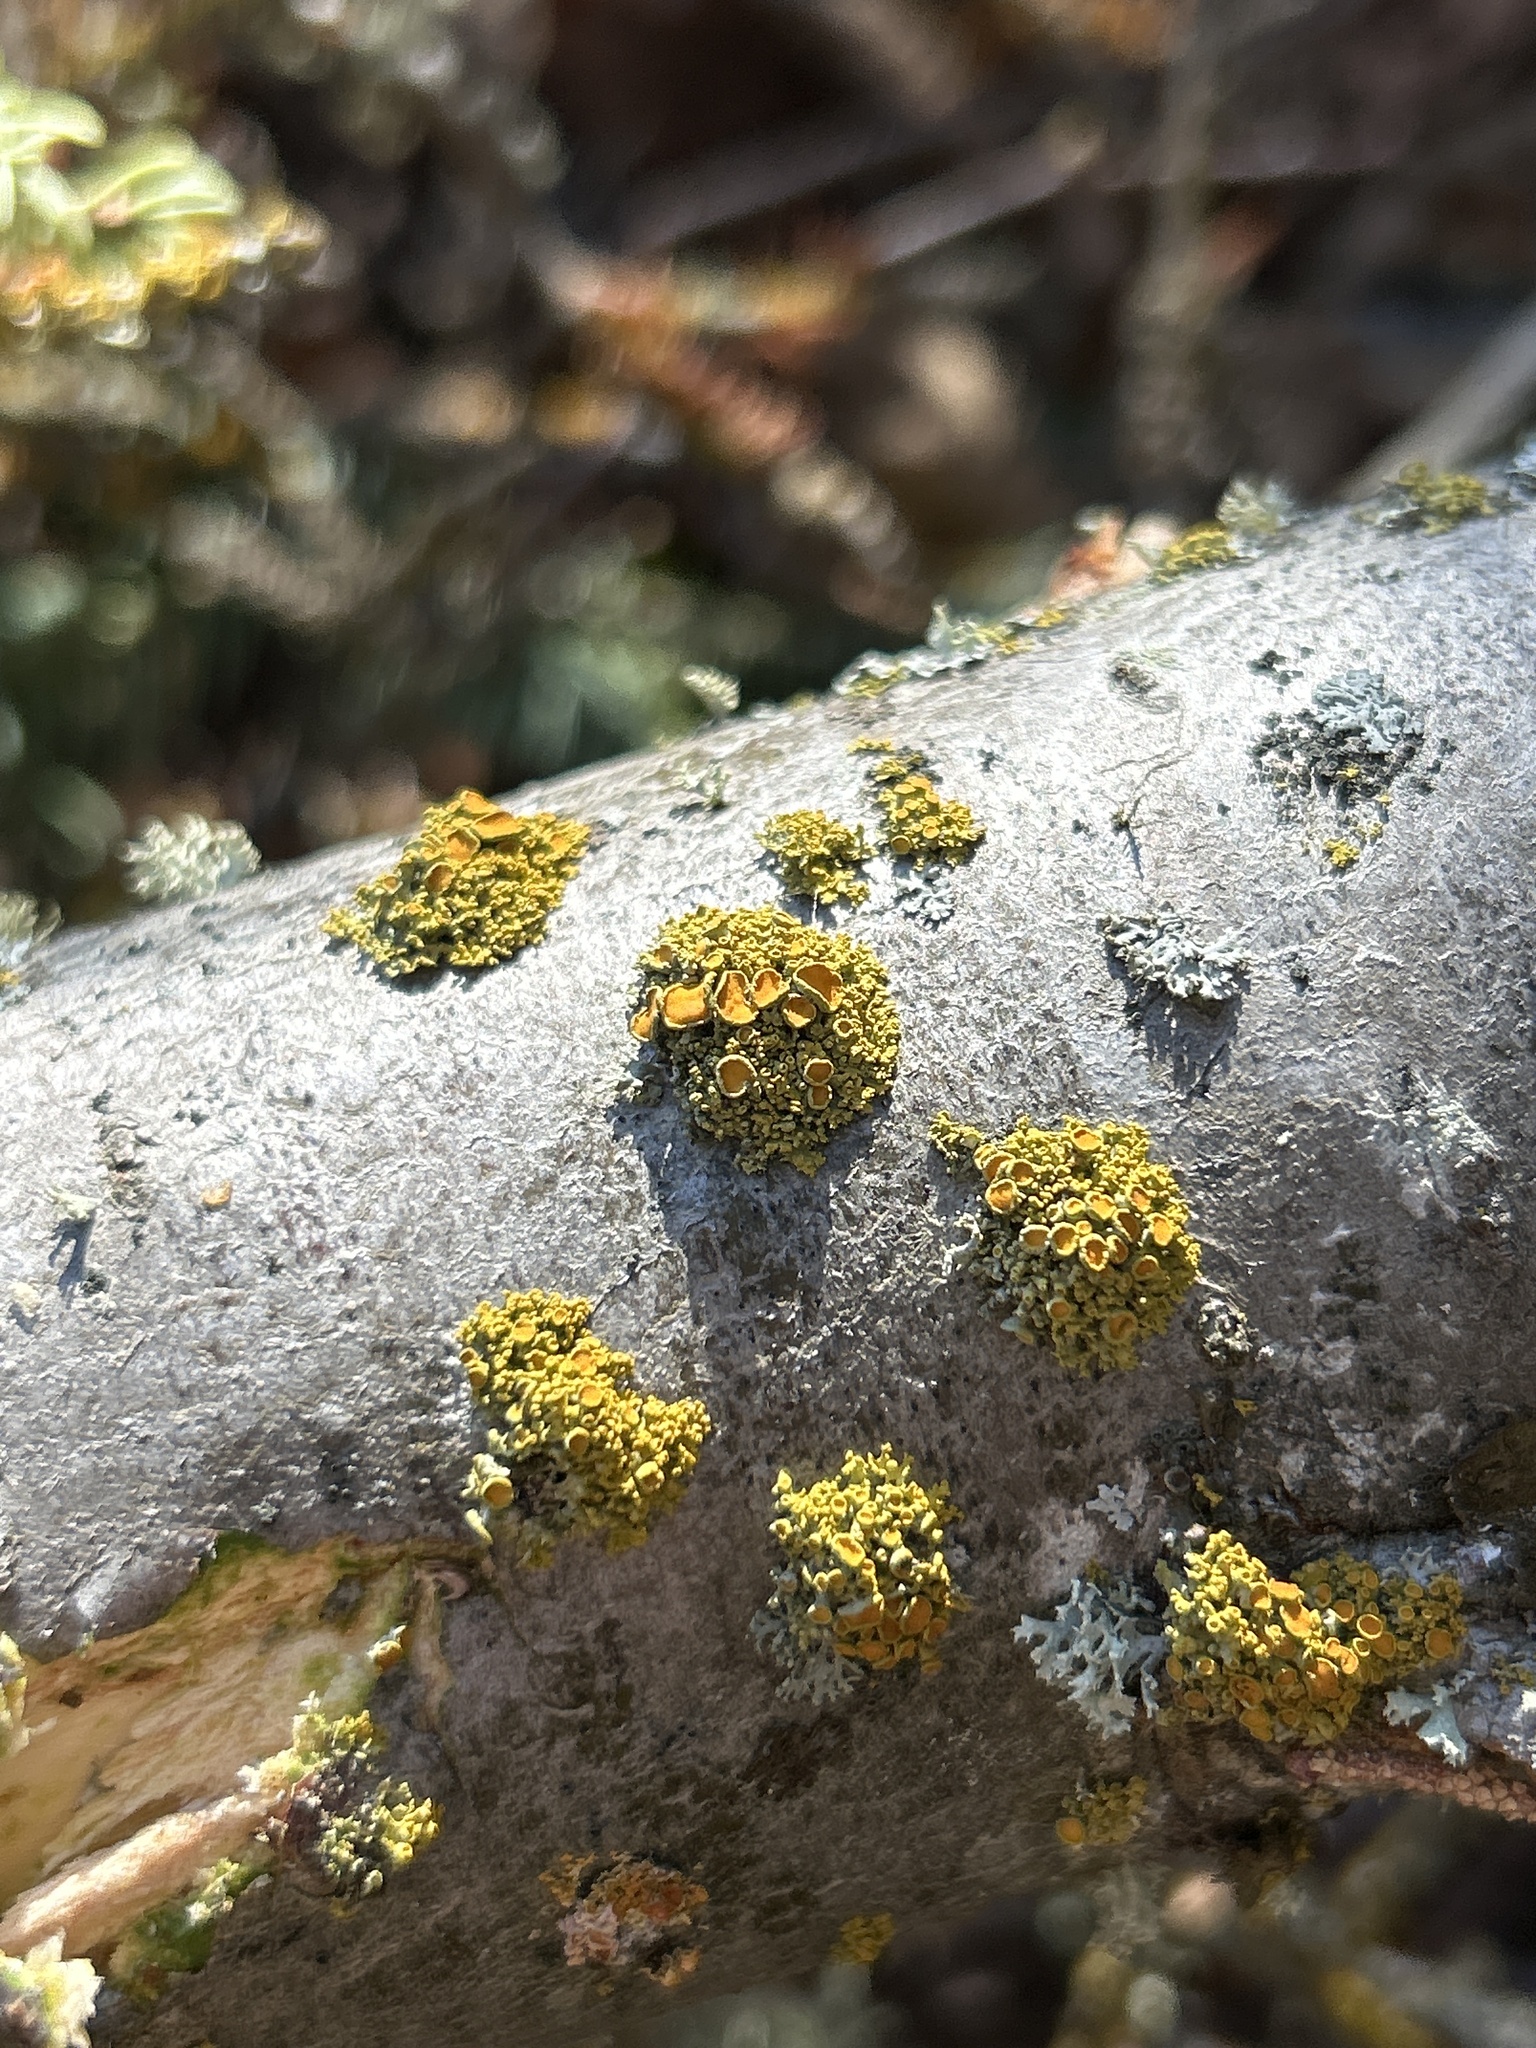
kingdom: Fungi
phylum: Ascomycota
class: Lecanoromycetes
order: Teloschistales
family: Teloschistaceae
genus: Polycauliona
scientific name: Polycauliona polycarpa
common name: Pin-cushion sunburst lichen
